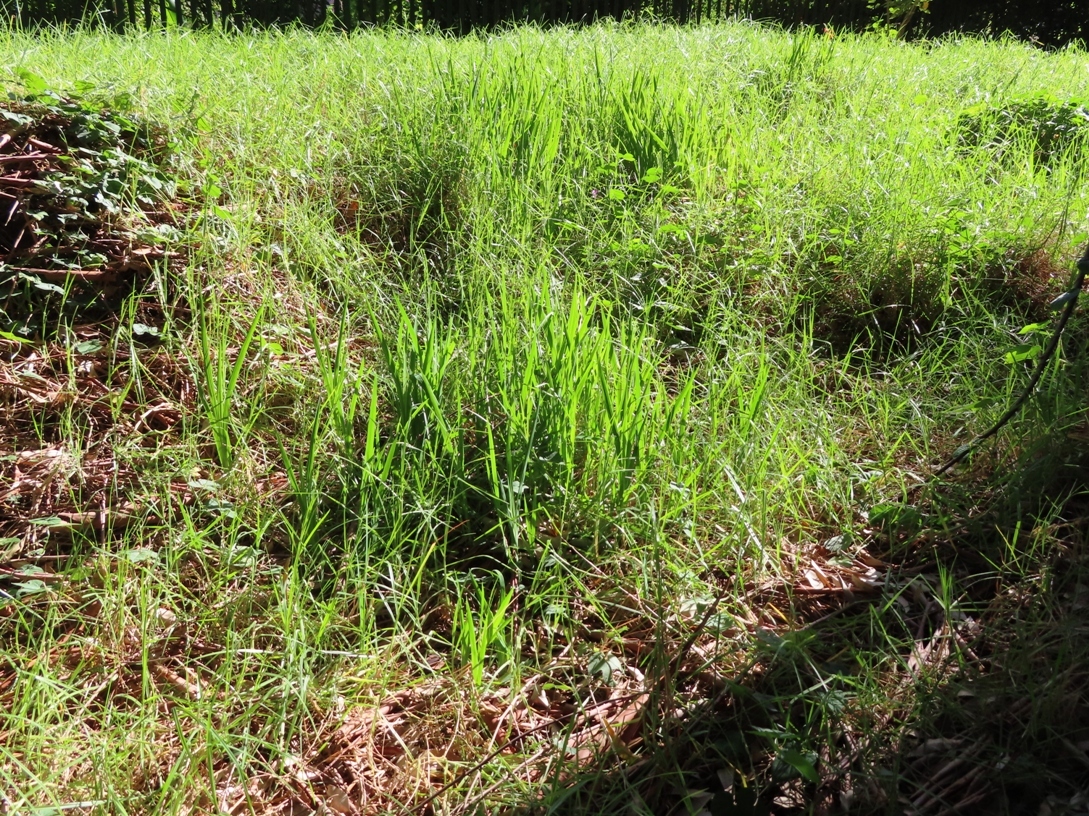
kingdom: Plantae
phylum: Tracheophyta
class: Liliopsida
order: Asparagales
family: Iridaceae
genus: Chasmanthe
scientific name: Chasmanthe aethiopica
